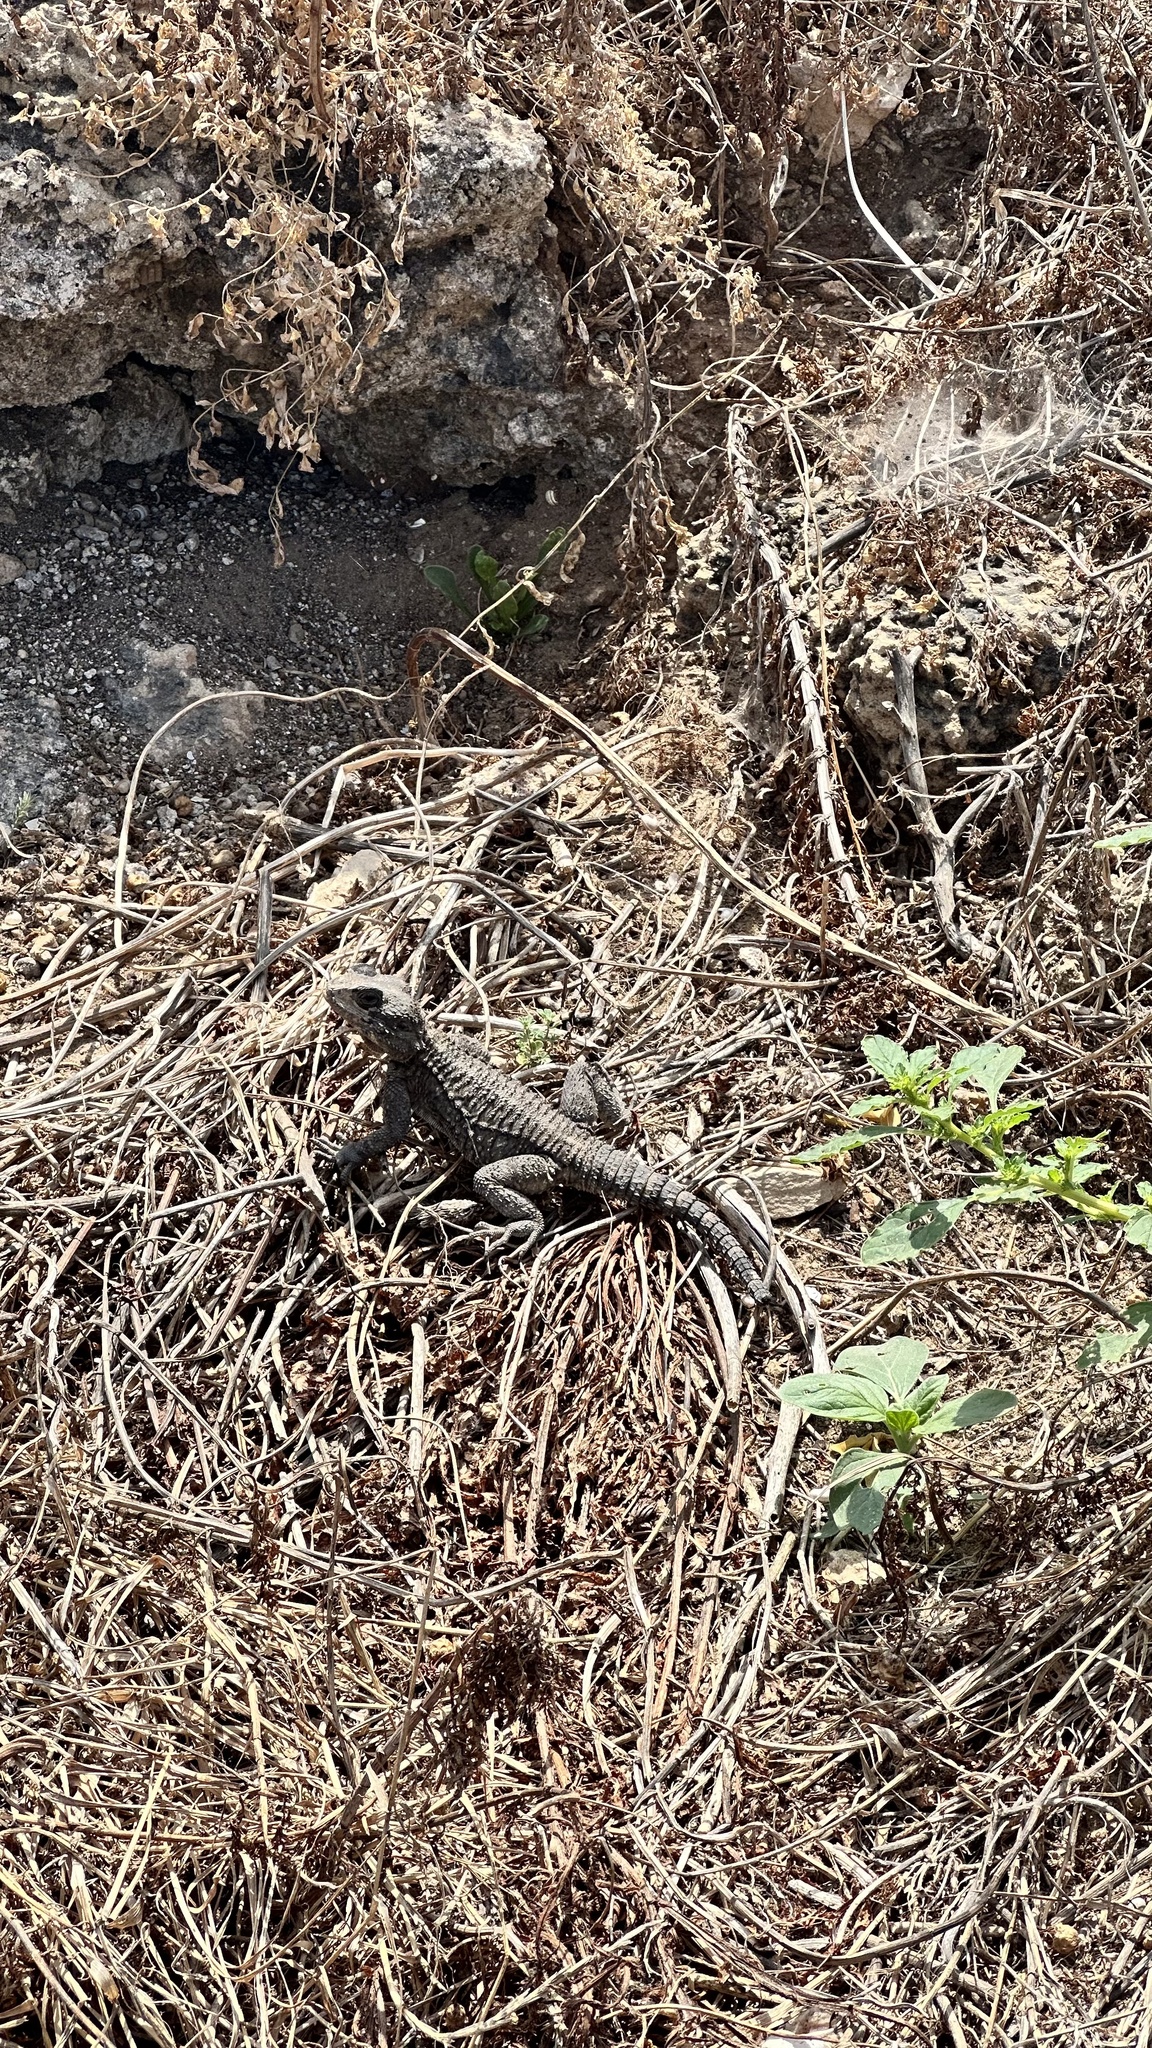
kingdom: Animalia
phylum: Chordata
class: Squamata
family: Agamidae
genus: Laudakia
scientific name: Laudakia vulgaris
